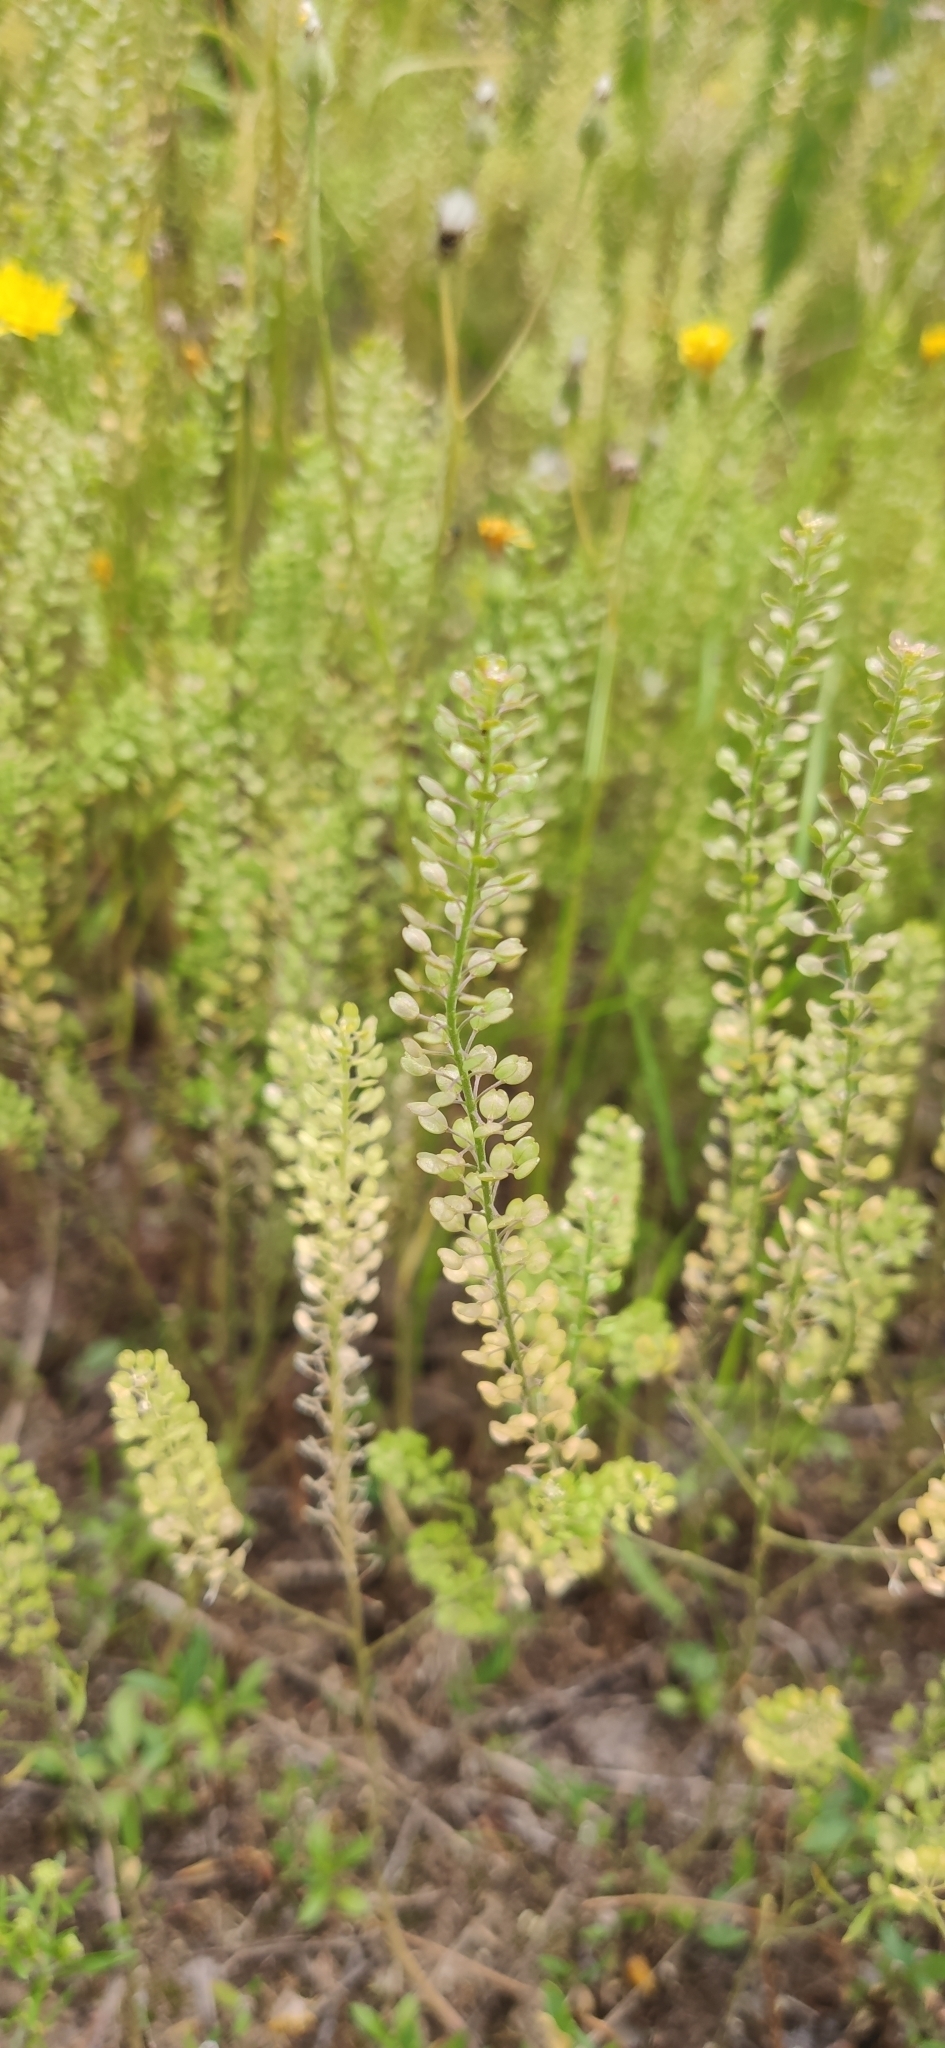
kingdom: Plantae
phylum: Tracheophyta
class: Magnoliopsida
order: Brassicales
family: Brassicaceae
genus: Lepidium
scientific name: Lepidium densiflorum
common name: Miner's pepperwort
